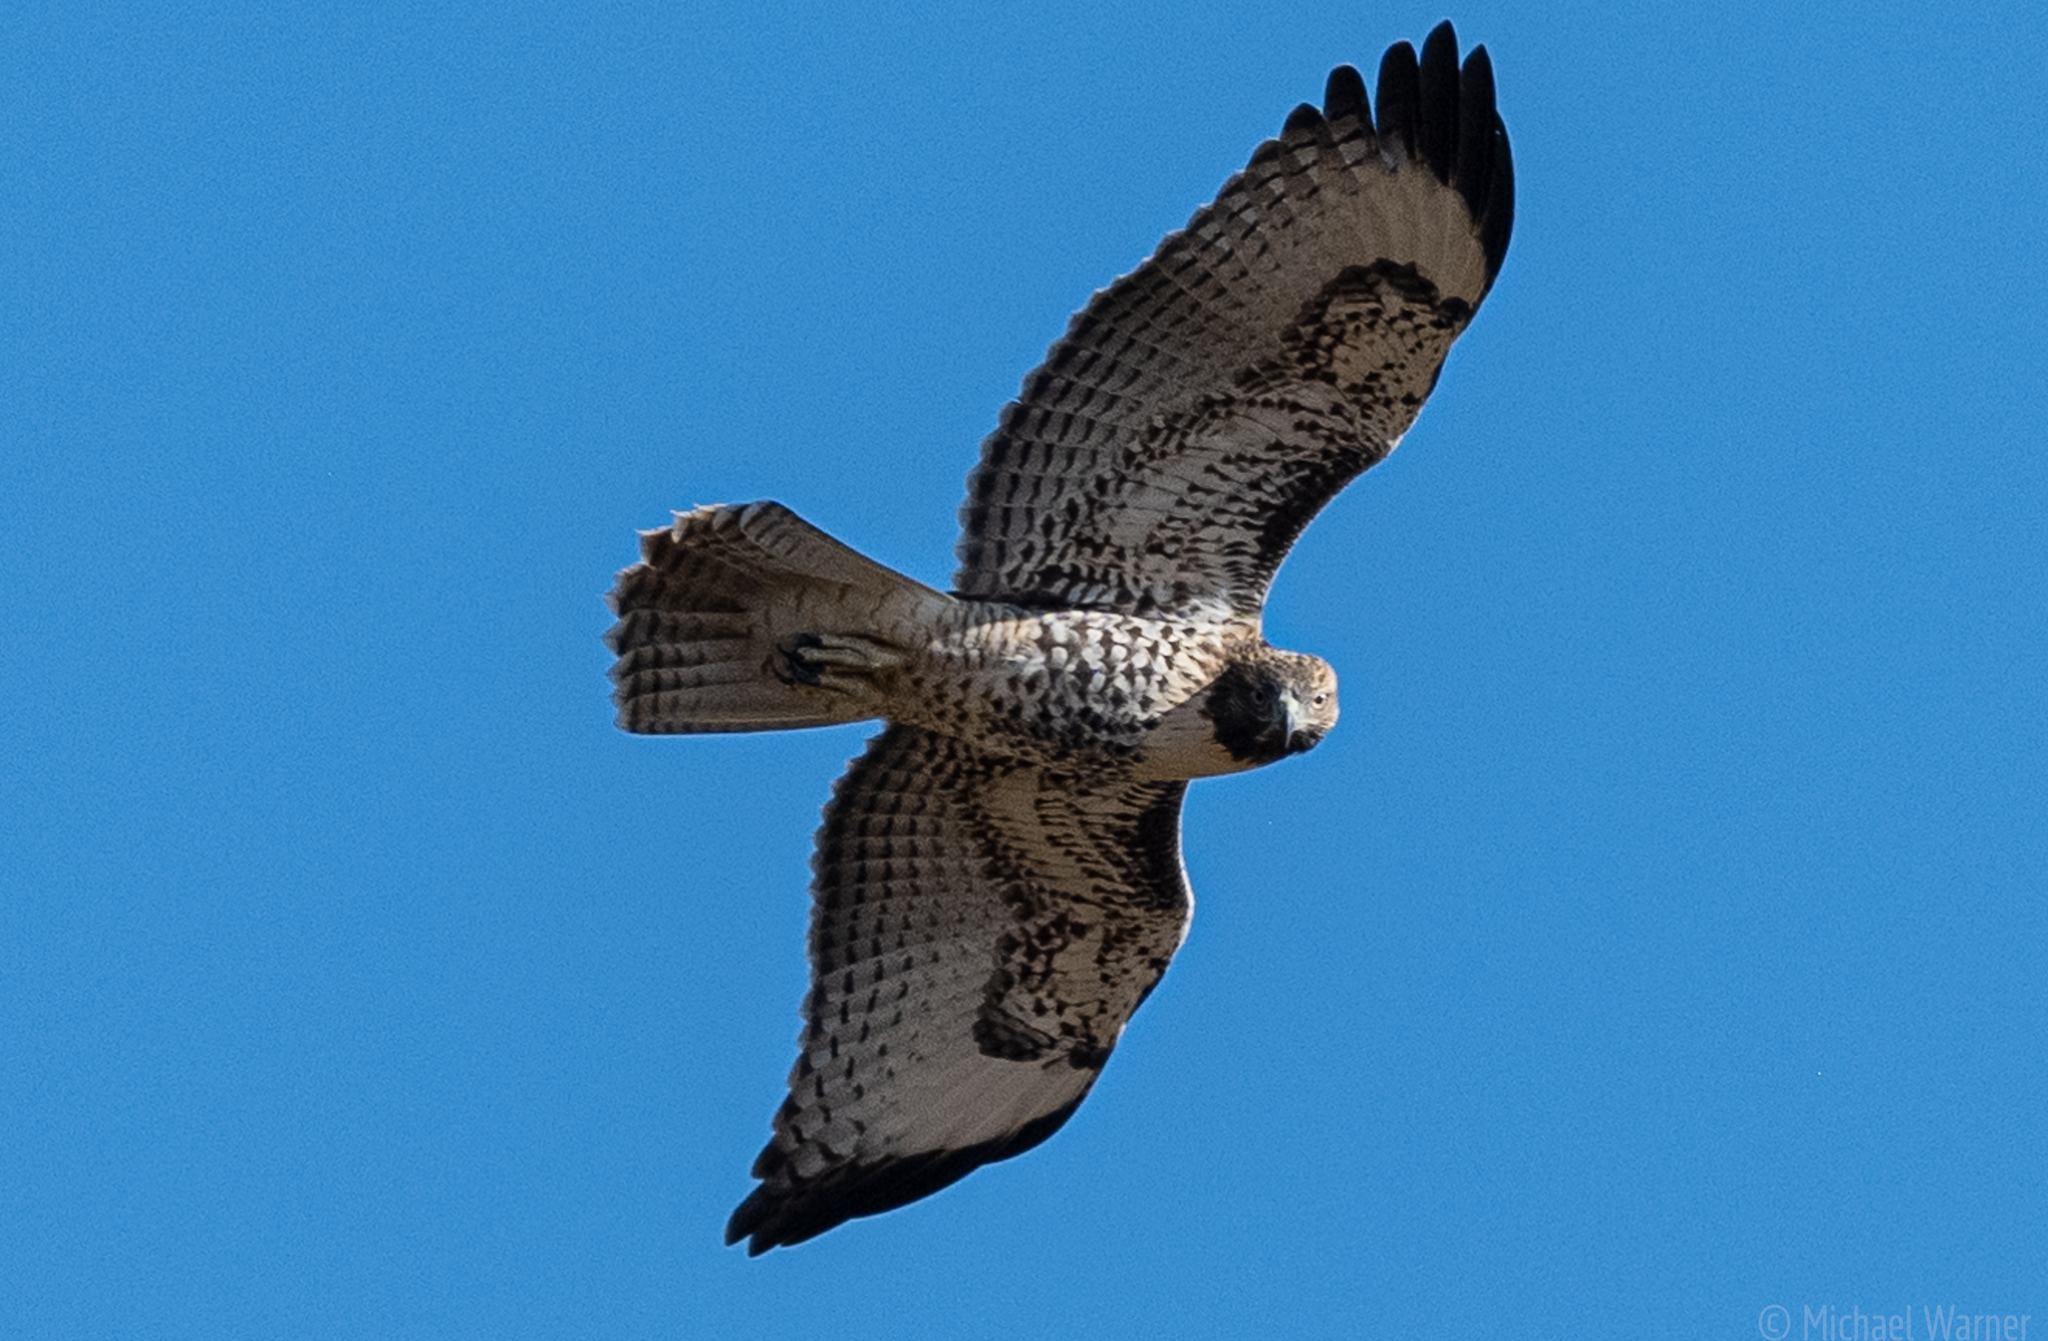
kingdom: Animalia
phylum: Chordata
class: Aves
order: Accipitriformes
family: Accipitridae
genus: Buteo
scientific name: Buteo jamaicensis
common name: Red-tailed hawk
